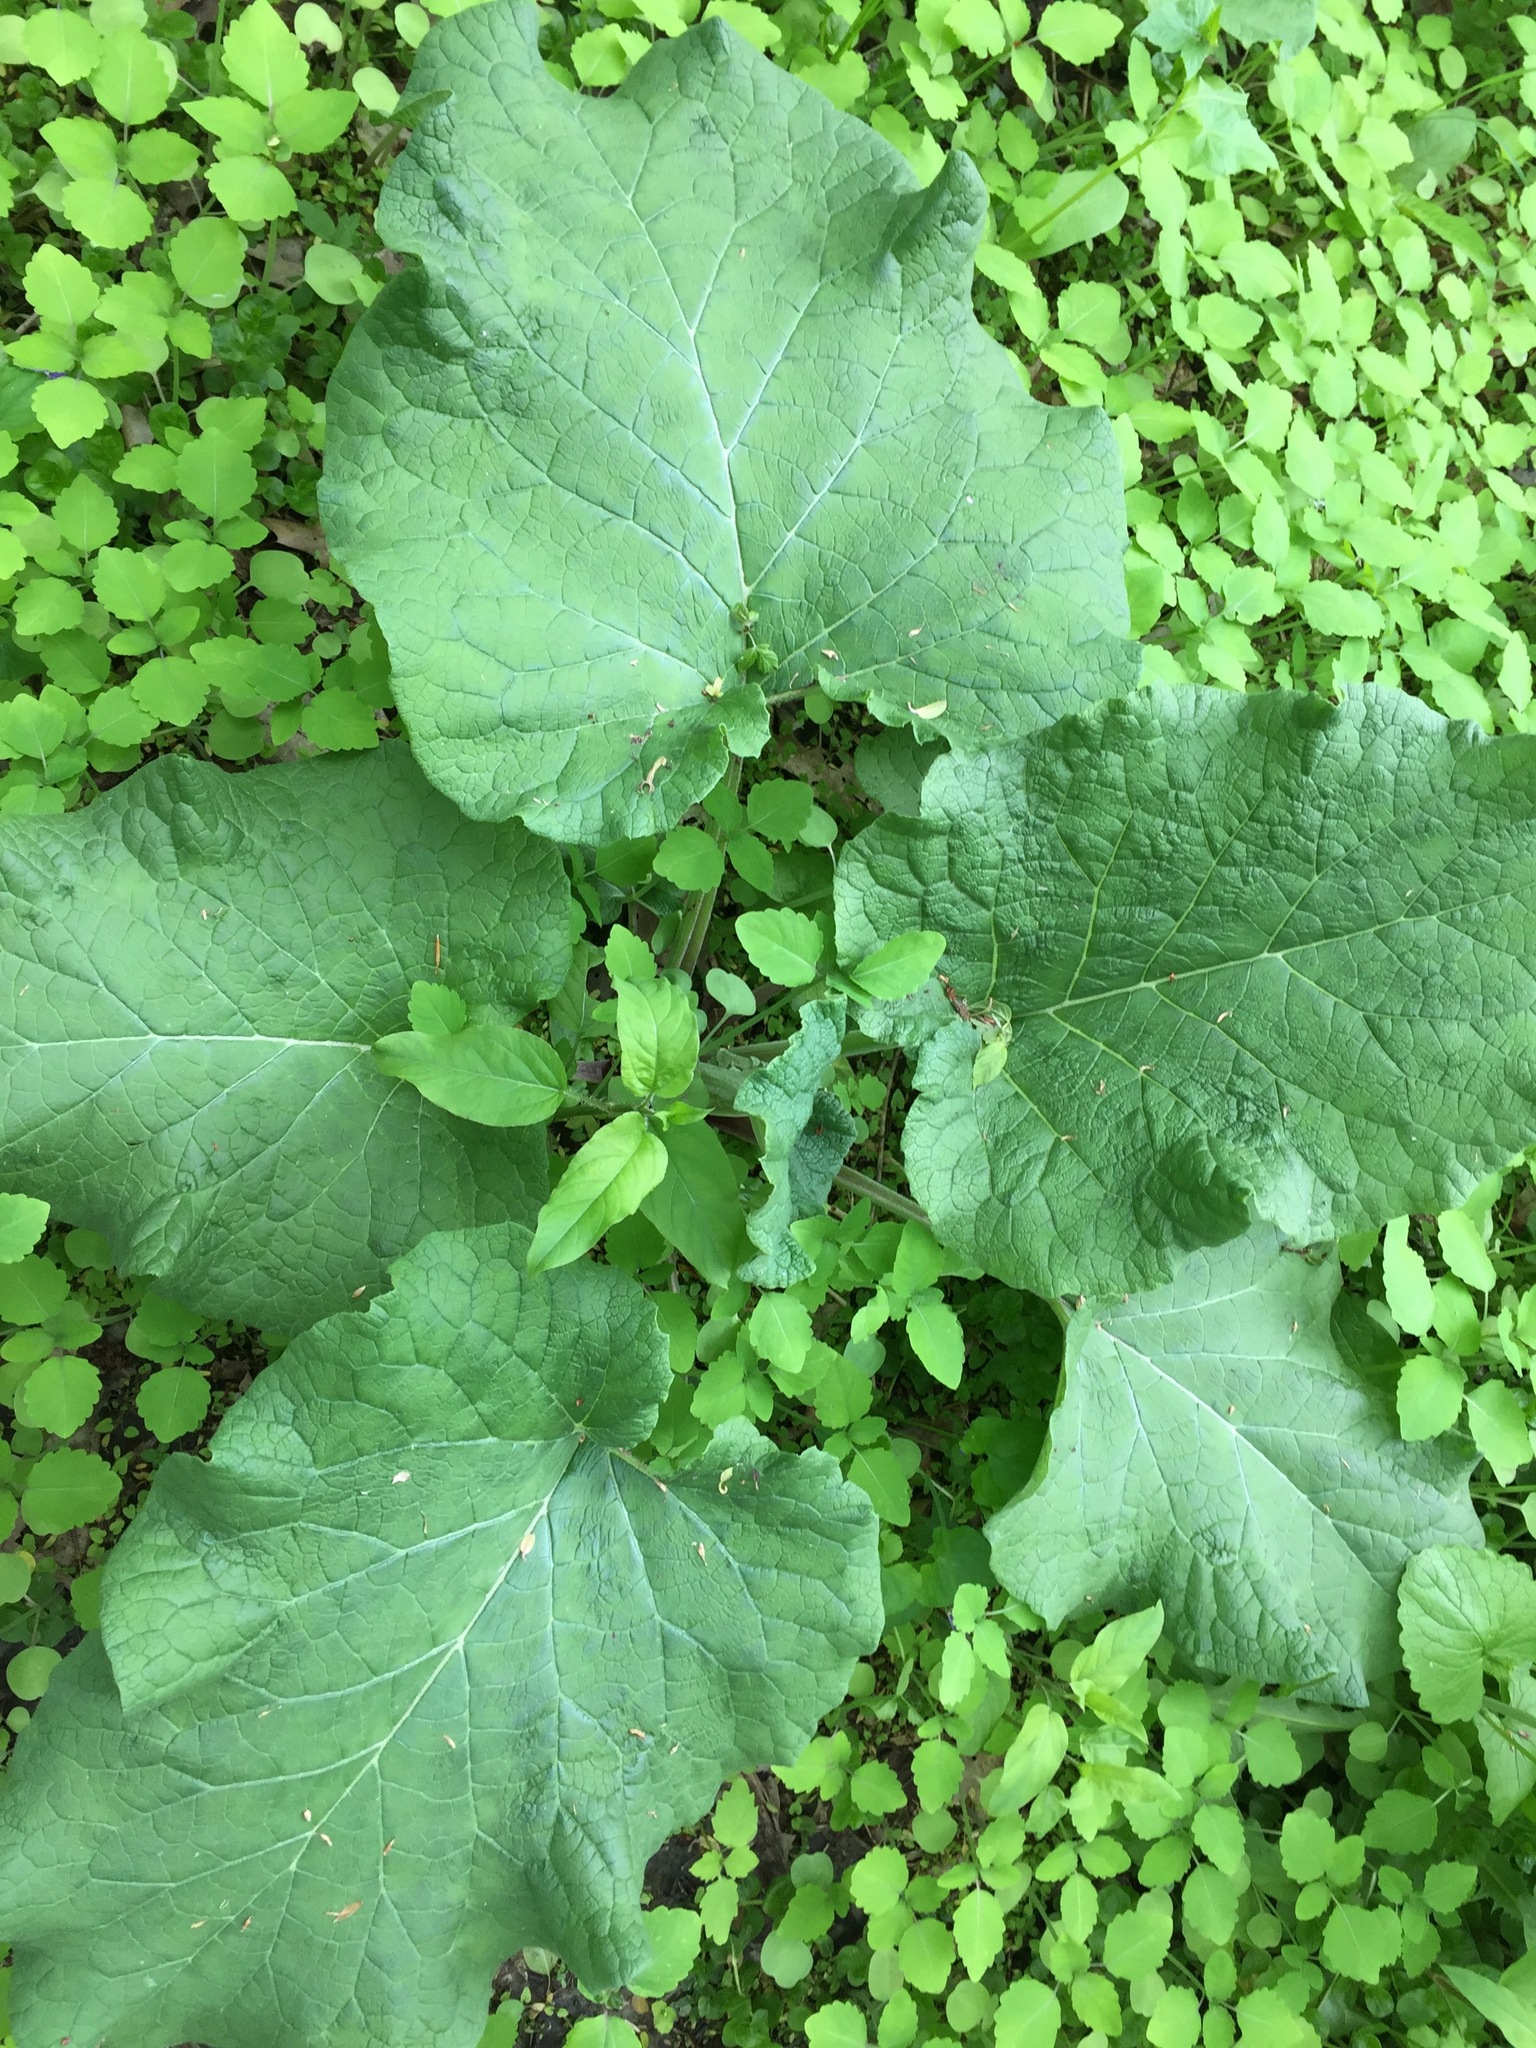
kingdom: Plantae
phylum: Tracheophyta
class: Magnoliopsida
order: Asterales
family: Asteraceae
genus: Arctium
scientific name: Arctium lappa
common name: Greater burdock
